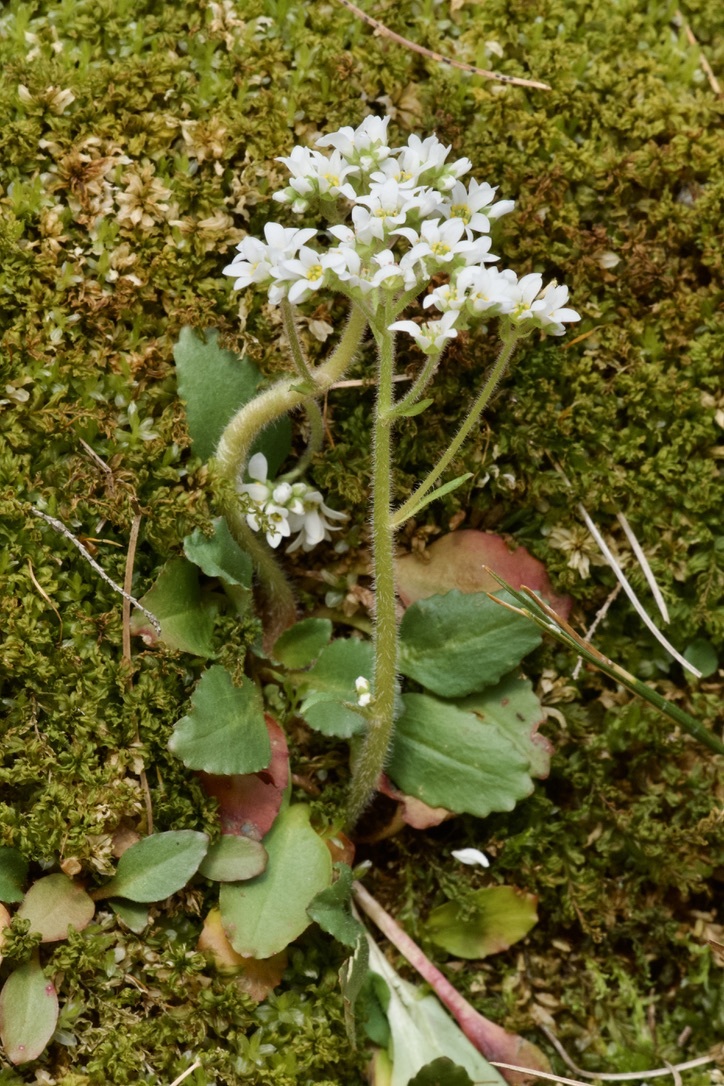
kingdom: Plantae
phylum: Tracheophyta
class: Magnoliopsida
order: Saxifragales
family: Saxifragaceae
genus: Micranthes
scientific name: Micranthes virginiensis
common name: Early saxifrage
